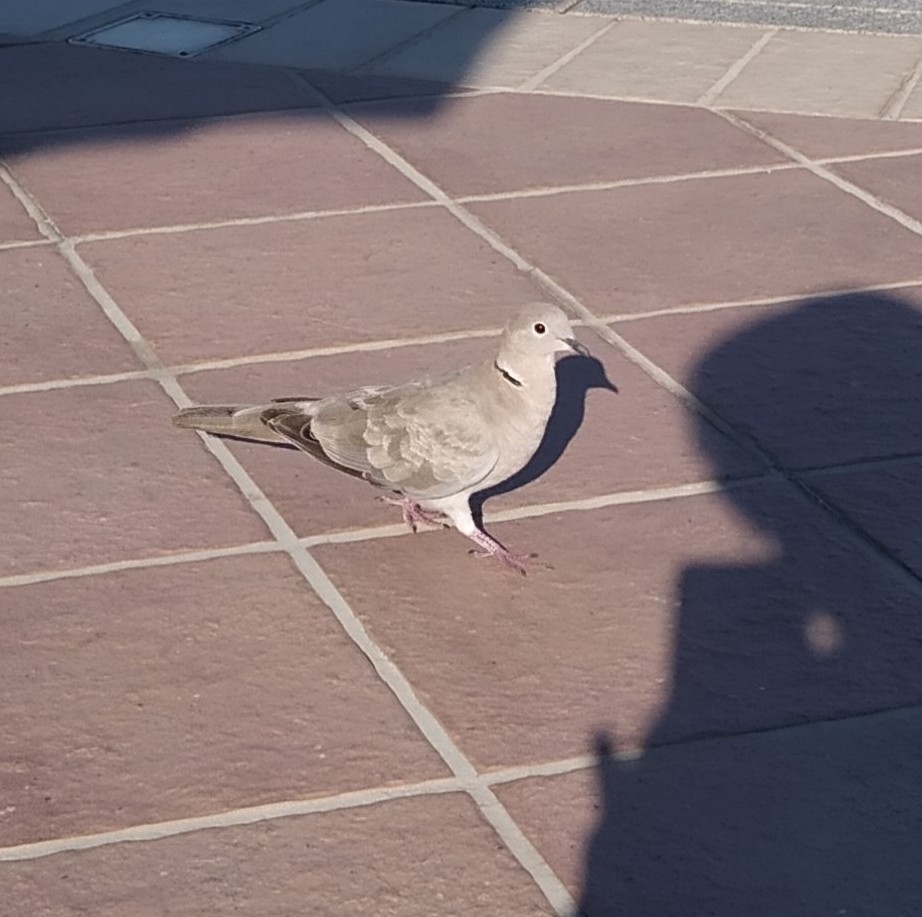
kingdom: Animalia
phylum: Chordata
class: Aves
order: Columbiformes
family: Columbidae
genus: Streptopelia
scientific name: Streptopelia decaocto
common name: Eurasian collared dove
